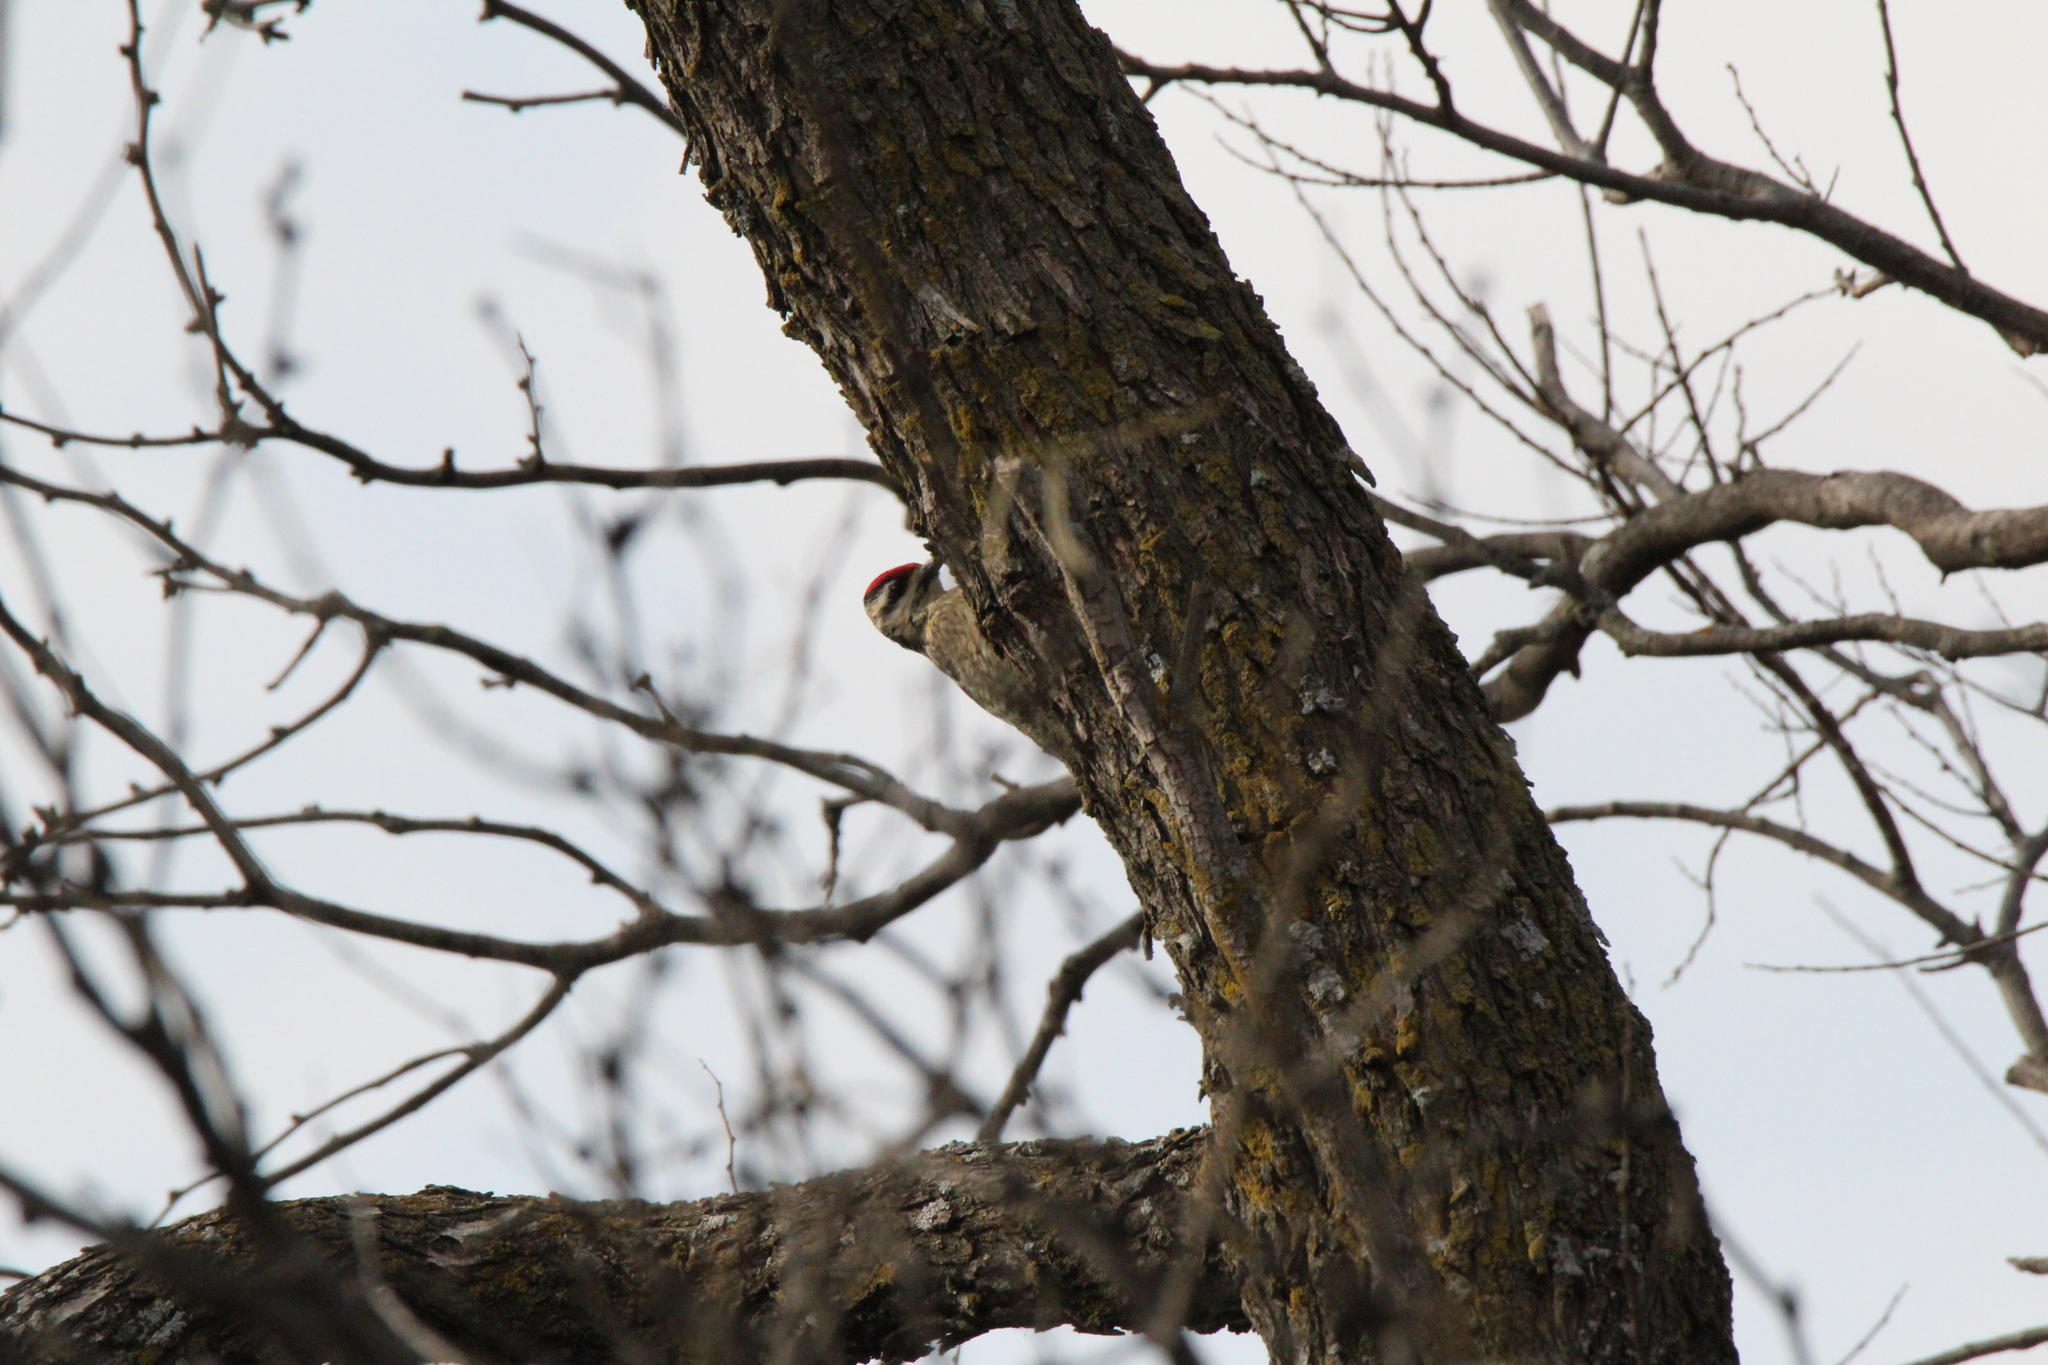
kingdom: Animalia
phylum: Chordata
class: Aves
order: Piciformes
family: Picidae
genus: Sphyrapicus
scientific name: Sphyrapicus varius
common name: Yellow-bellied sapsucker
